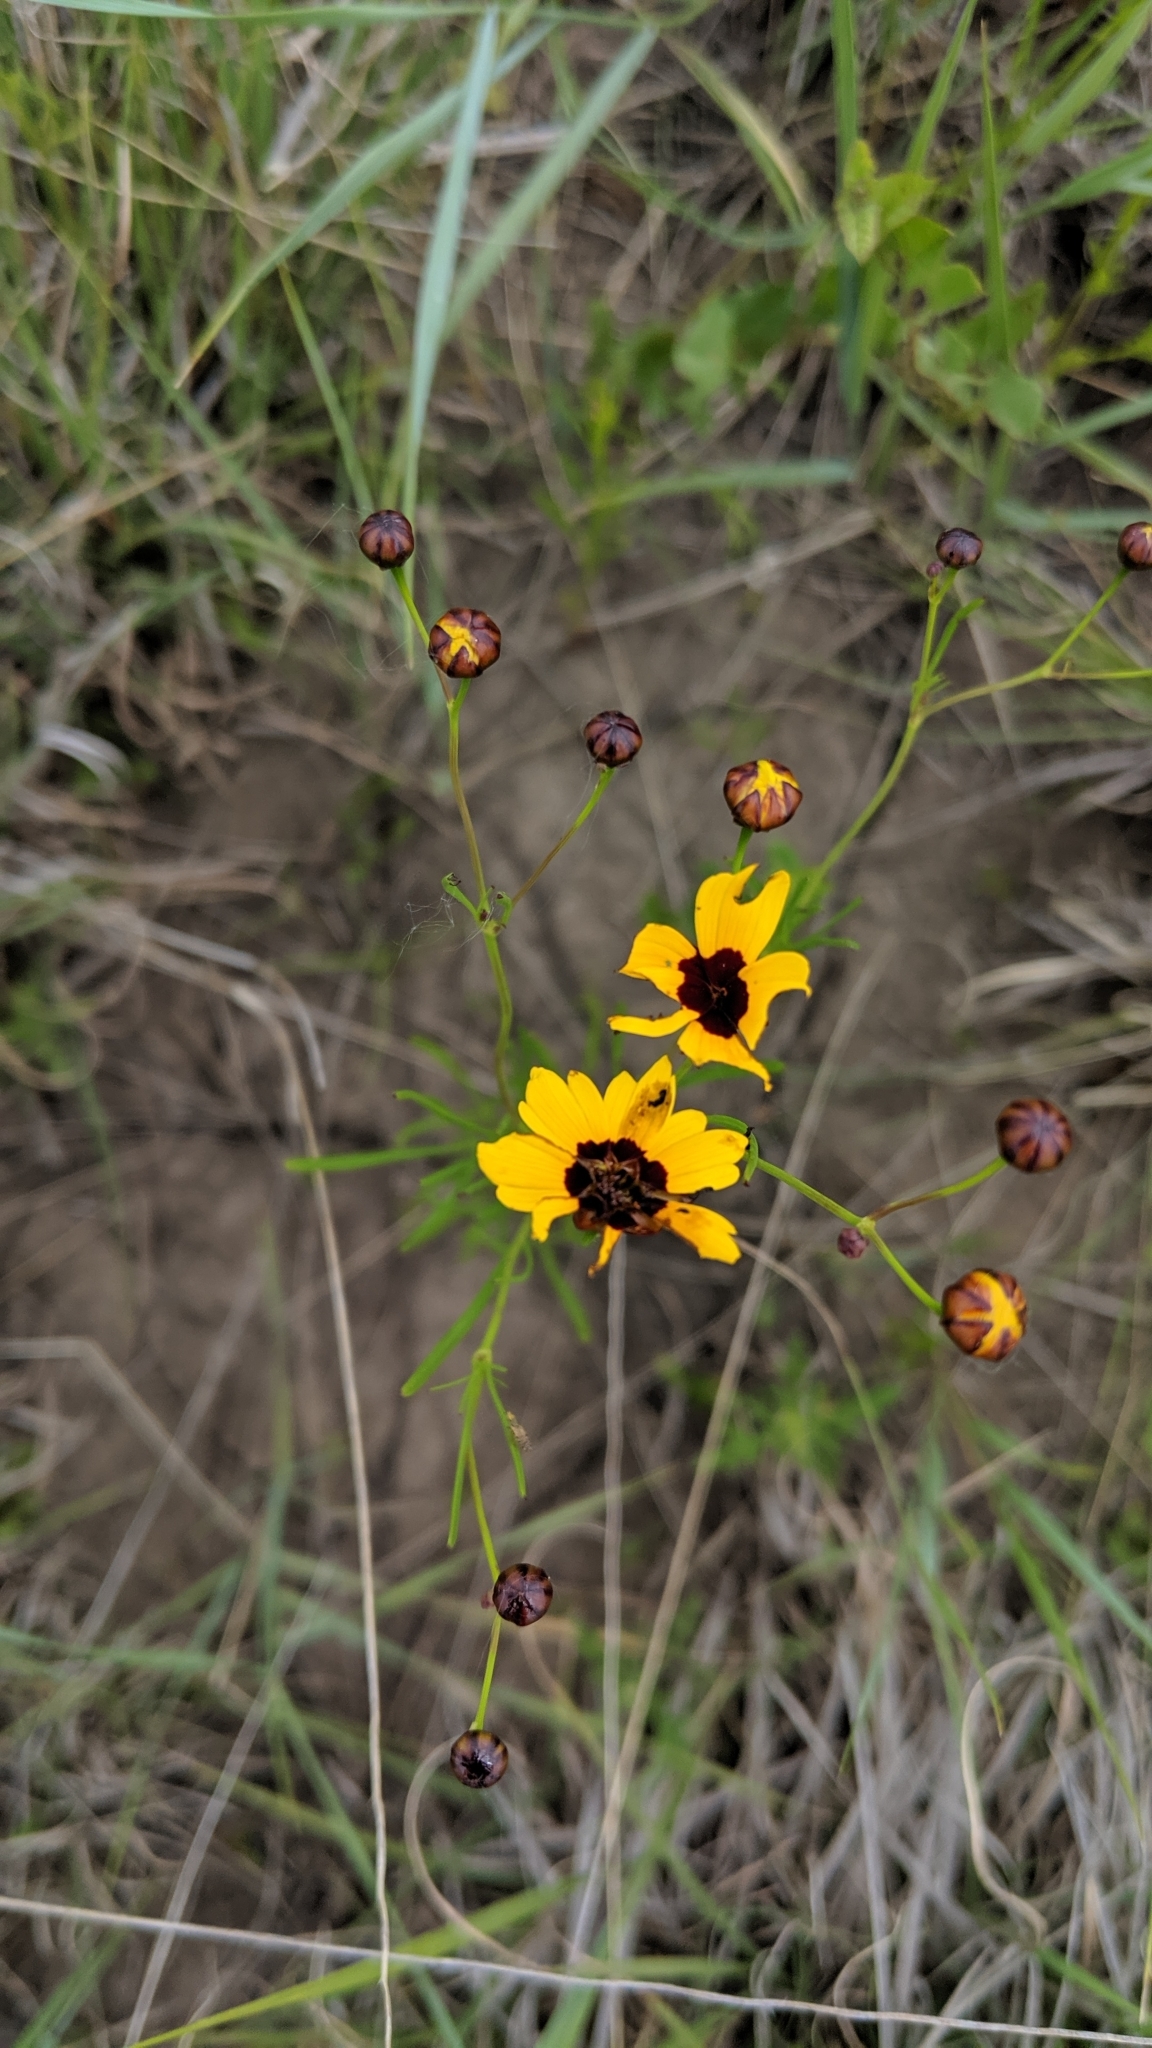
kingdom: Plantae
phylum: Tracheophyta
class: Magnoliopsida
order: Asterales
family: Asteraceae
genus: Coreopsis
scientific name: Coreopsis tinctoria
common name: Garden tickseed
